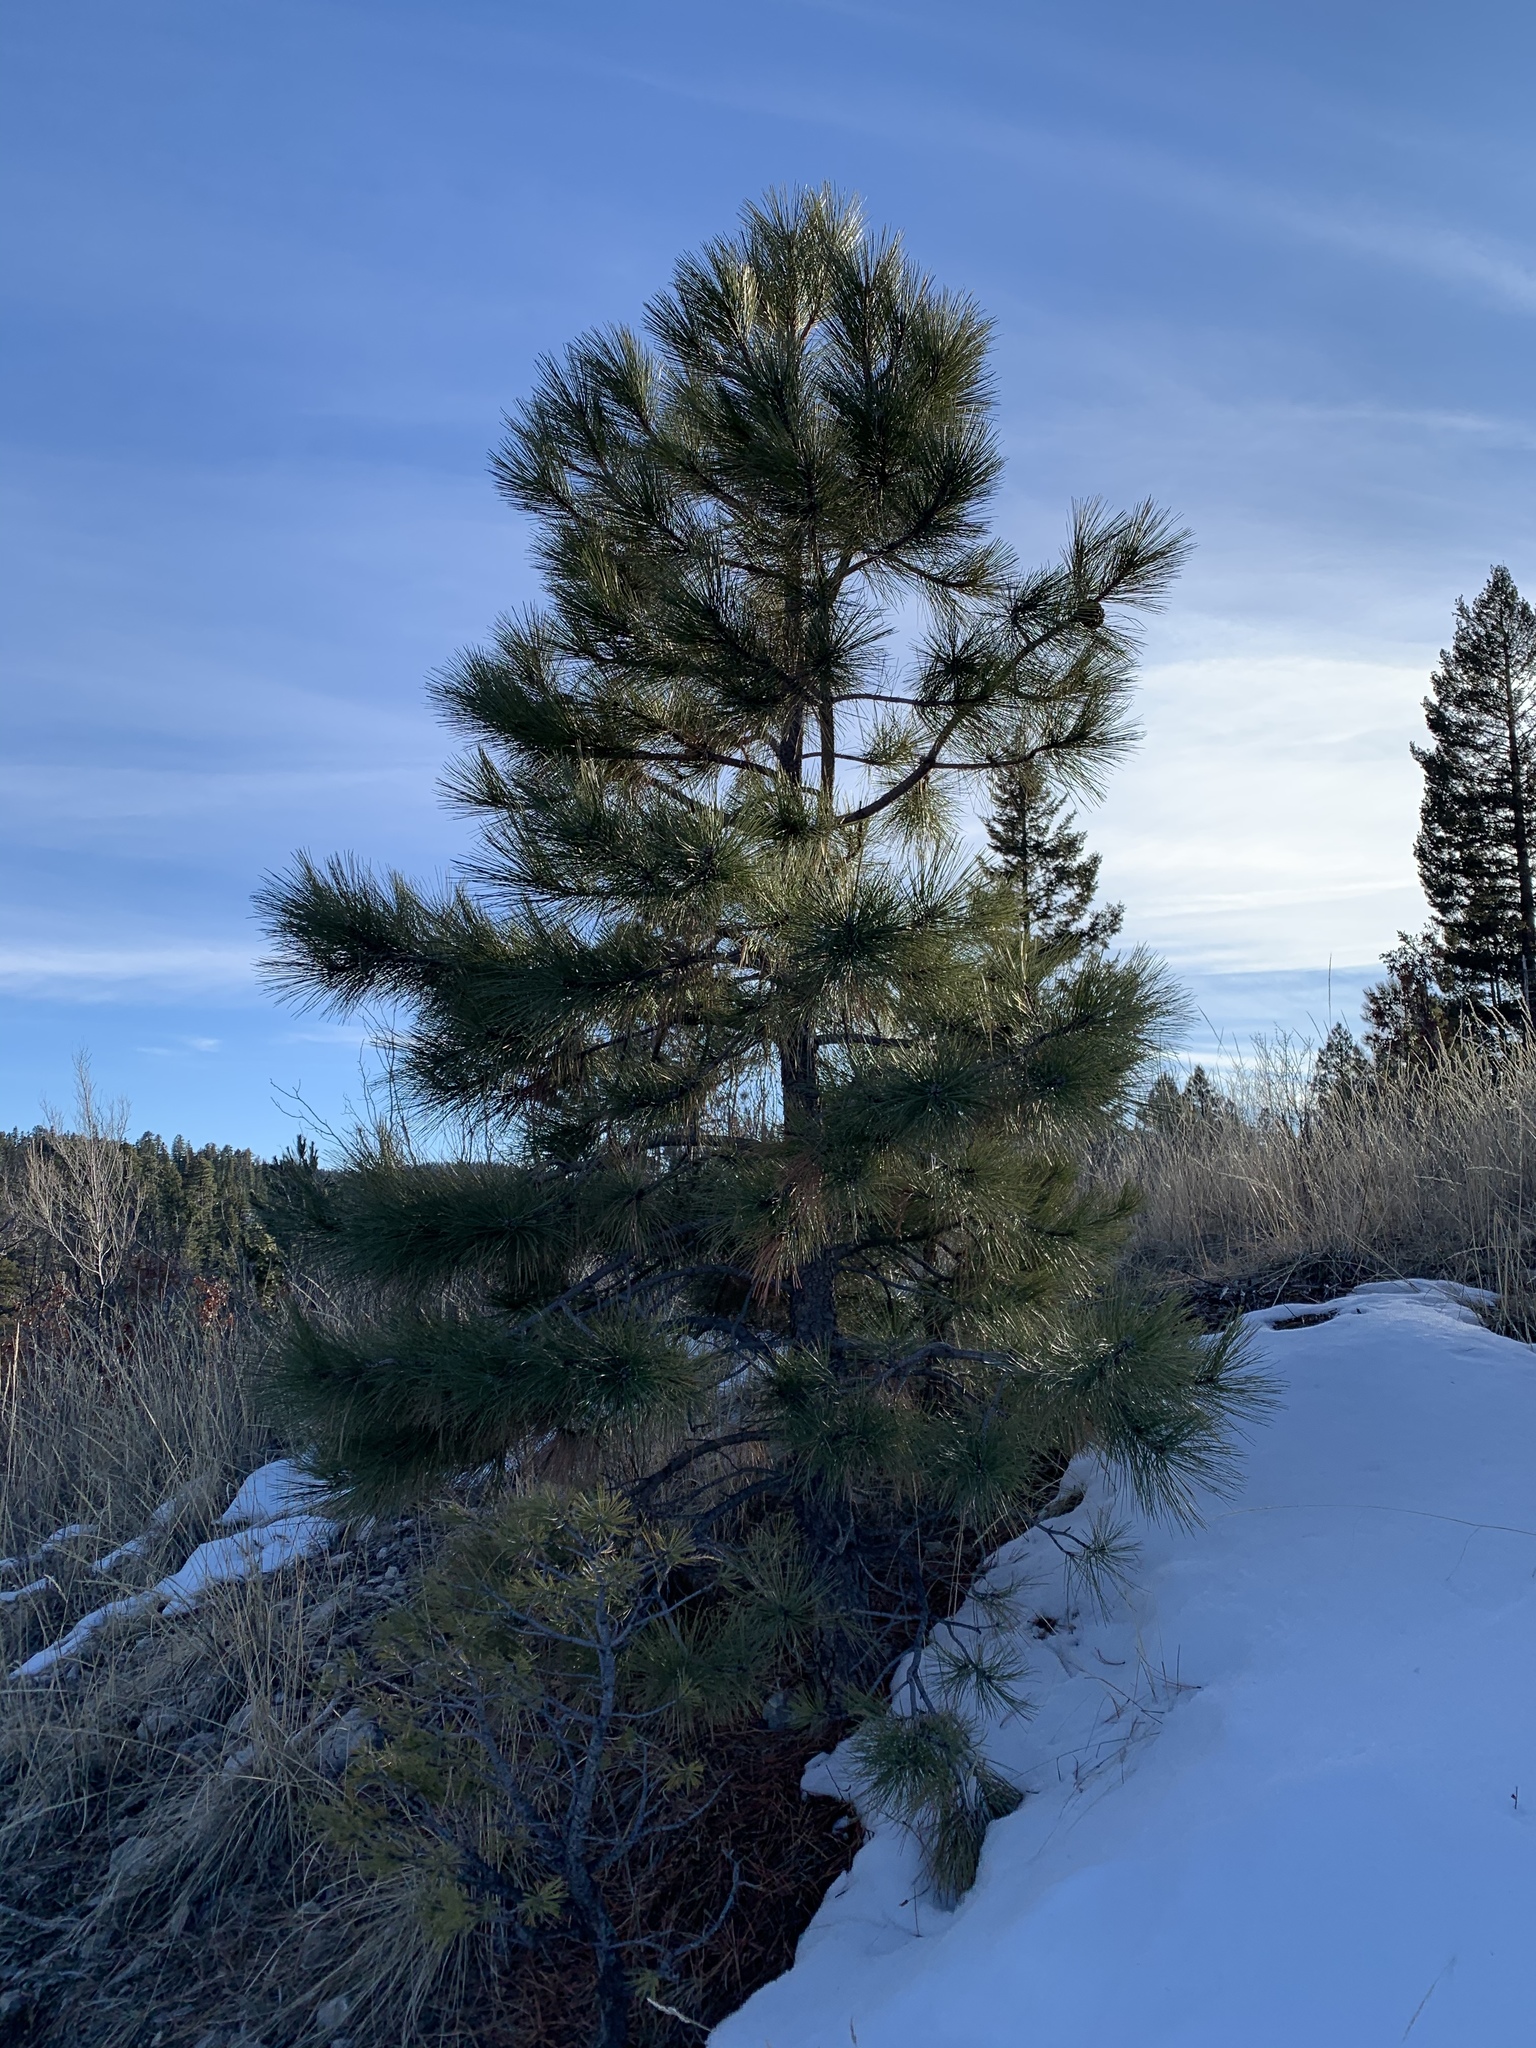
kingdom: Plantae
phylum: Tracheophyta
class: Pinopsida
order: Pinales
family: Pinaceae
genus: Pinus
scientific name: Pinus ponderosa
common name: Western yellow-pine
